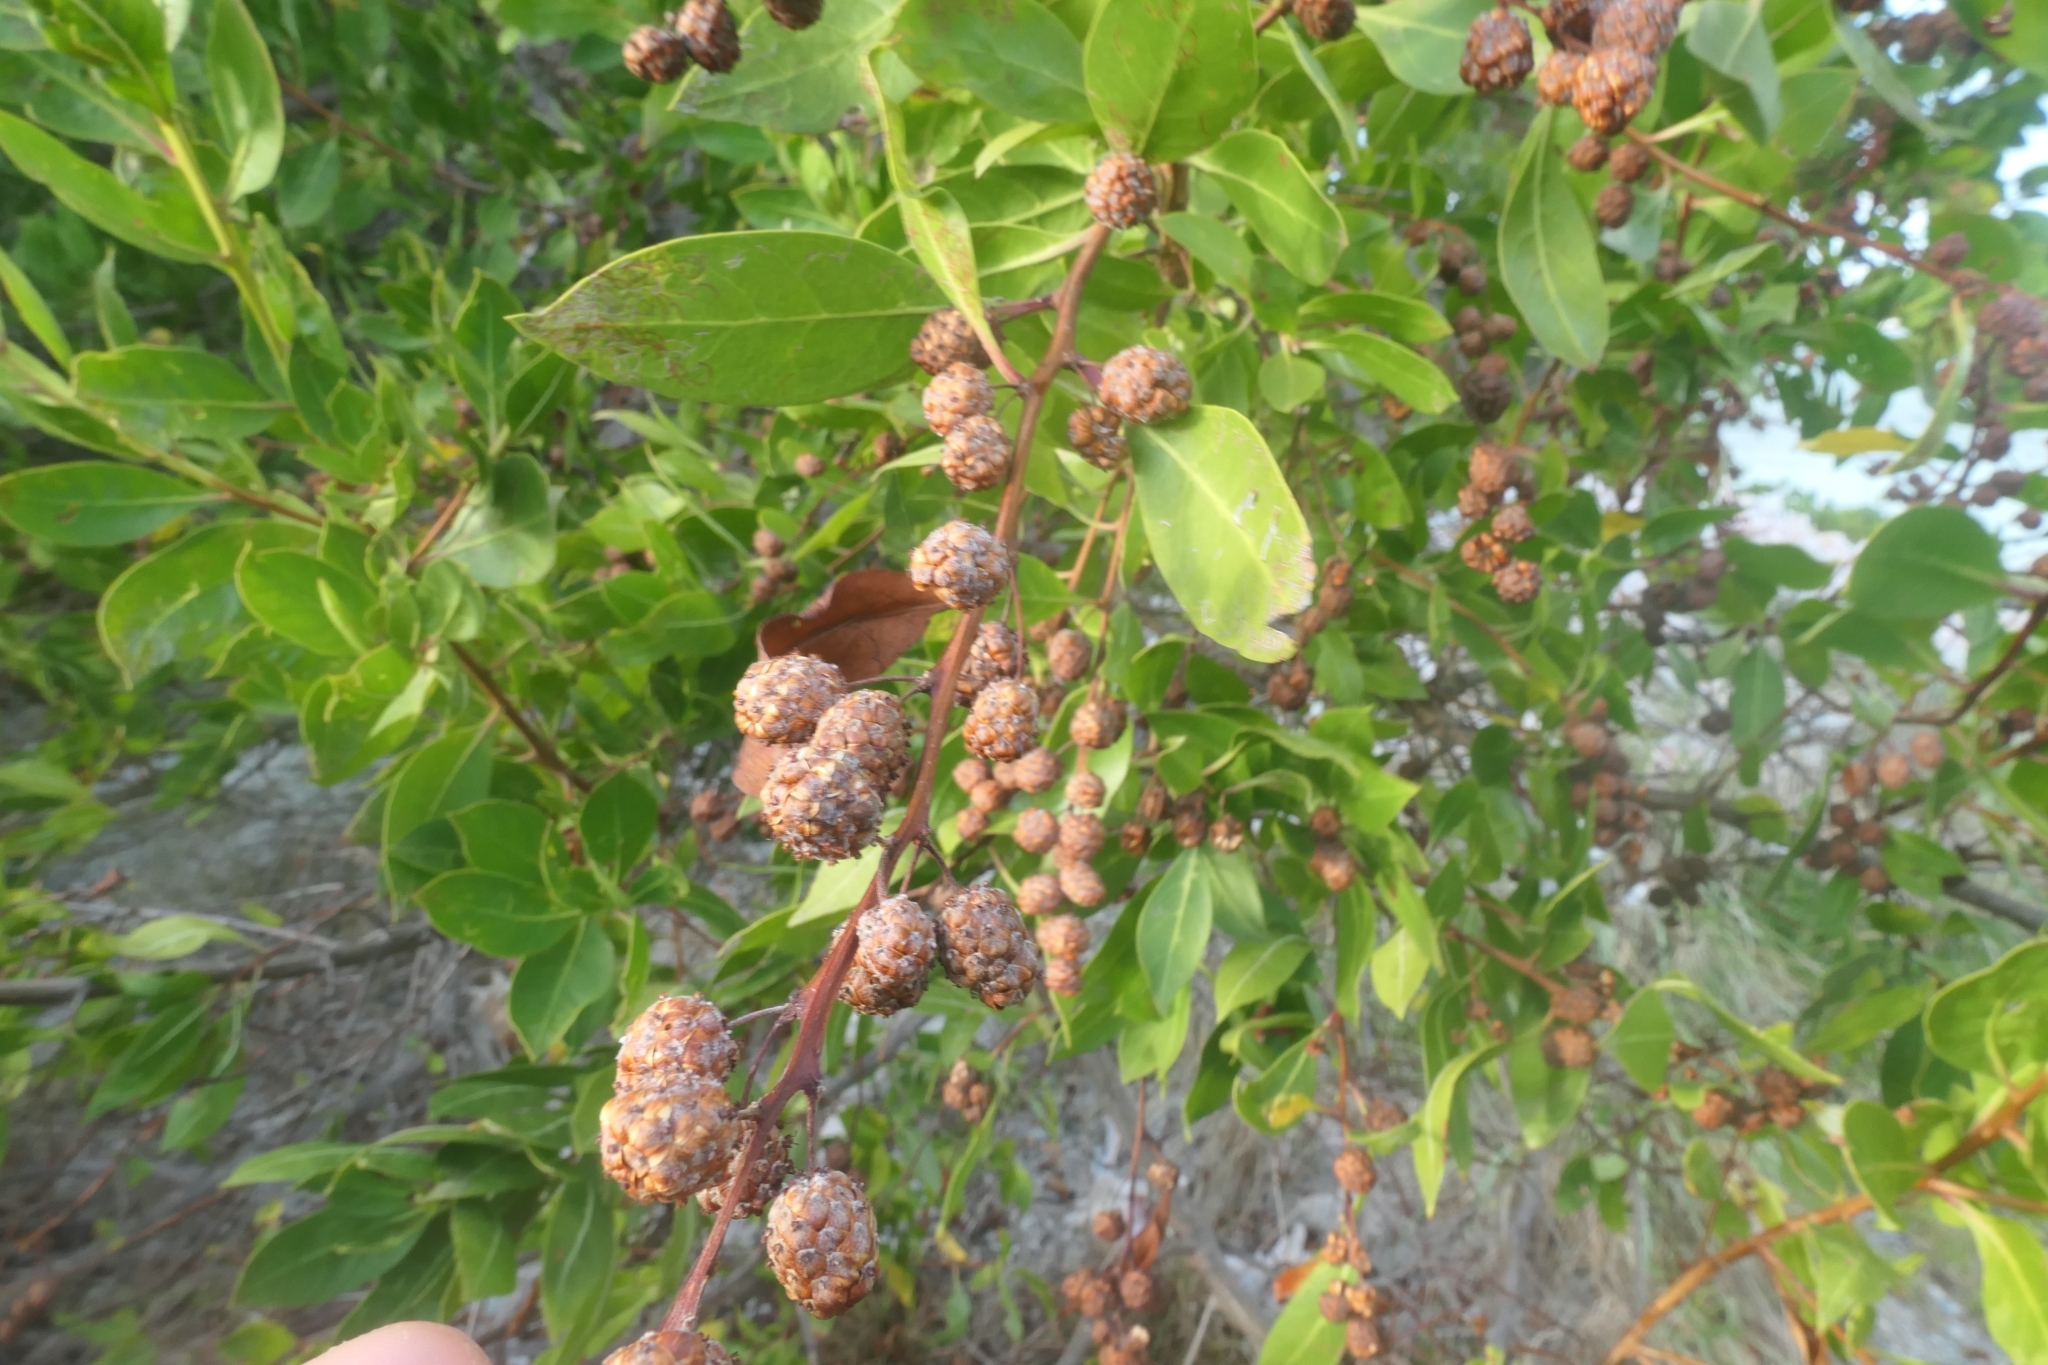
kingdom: Plantae
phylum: Tracheophyta
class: Magnoliopsida
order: Myrtales
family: Combretaceae
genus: Conocarpus
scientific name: Conocarpus erectus
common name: Button mangrove
